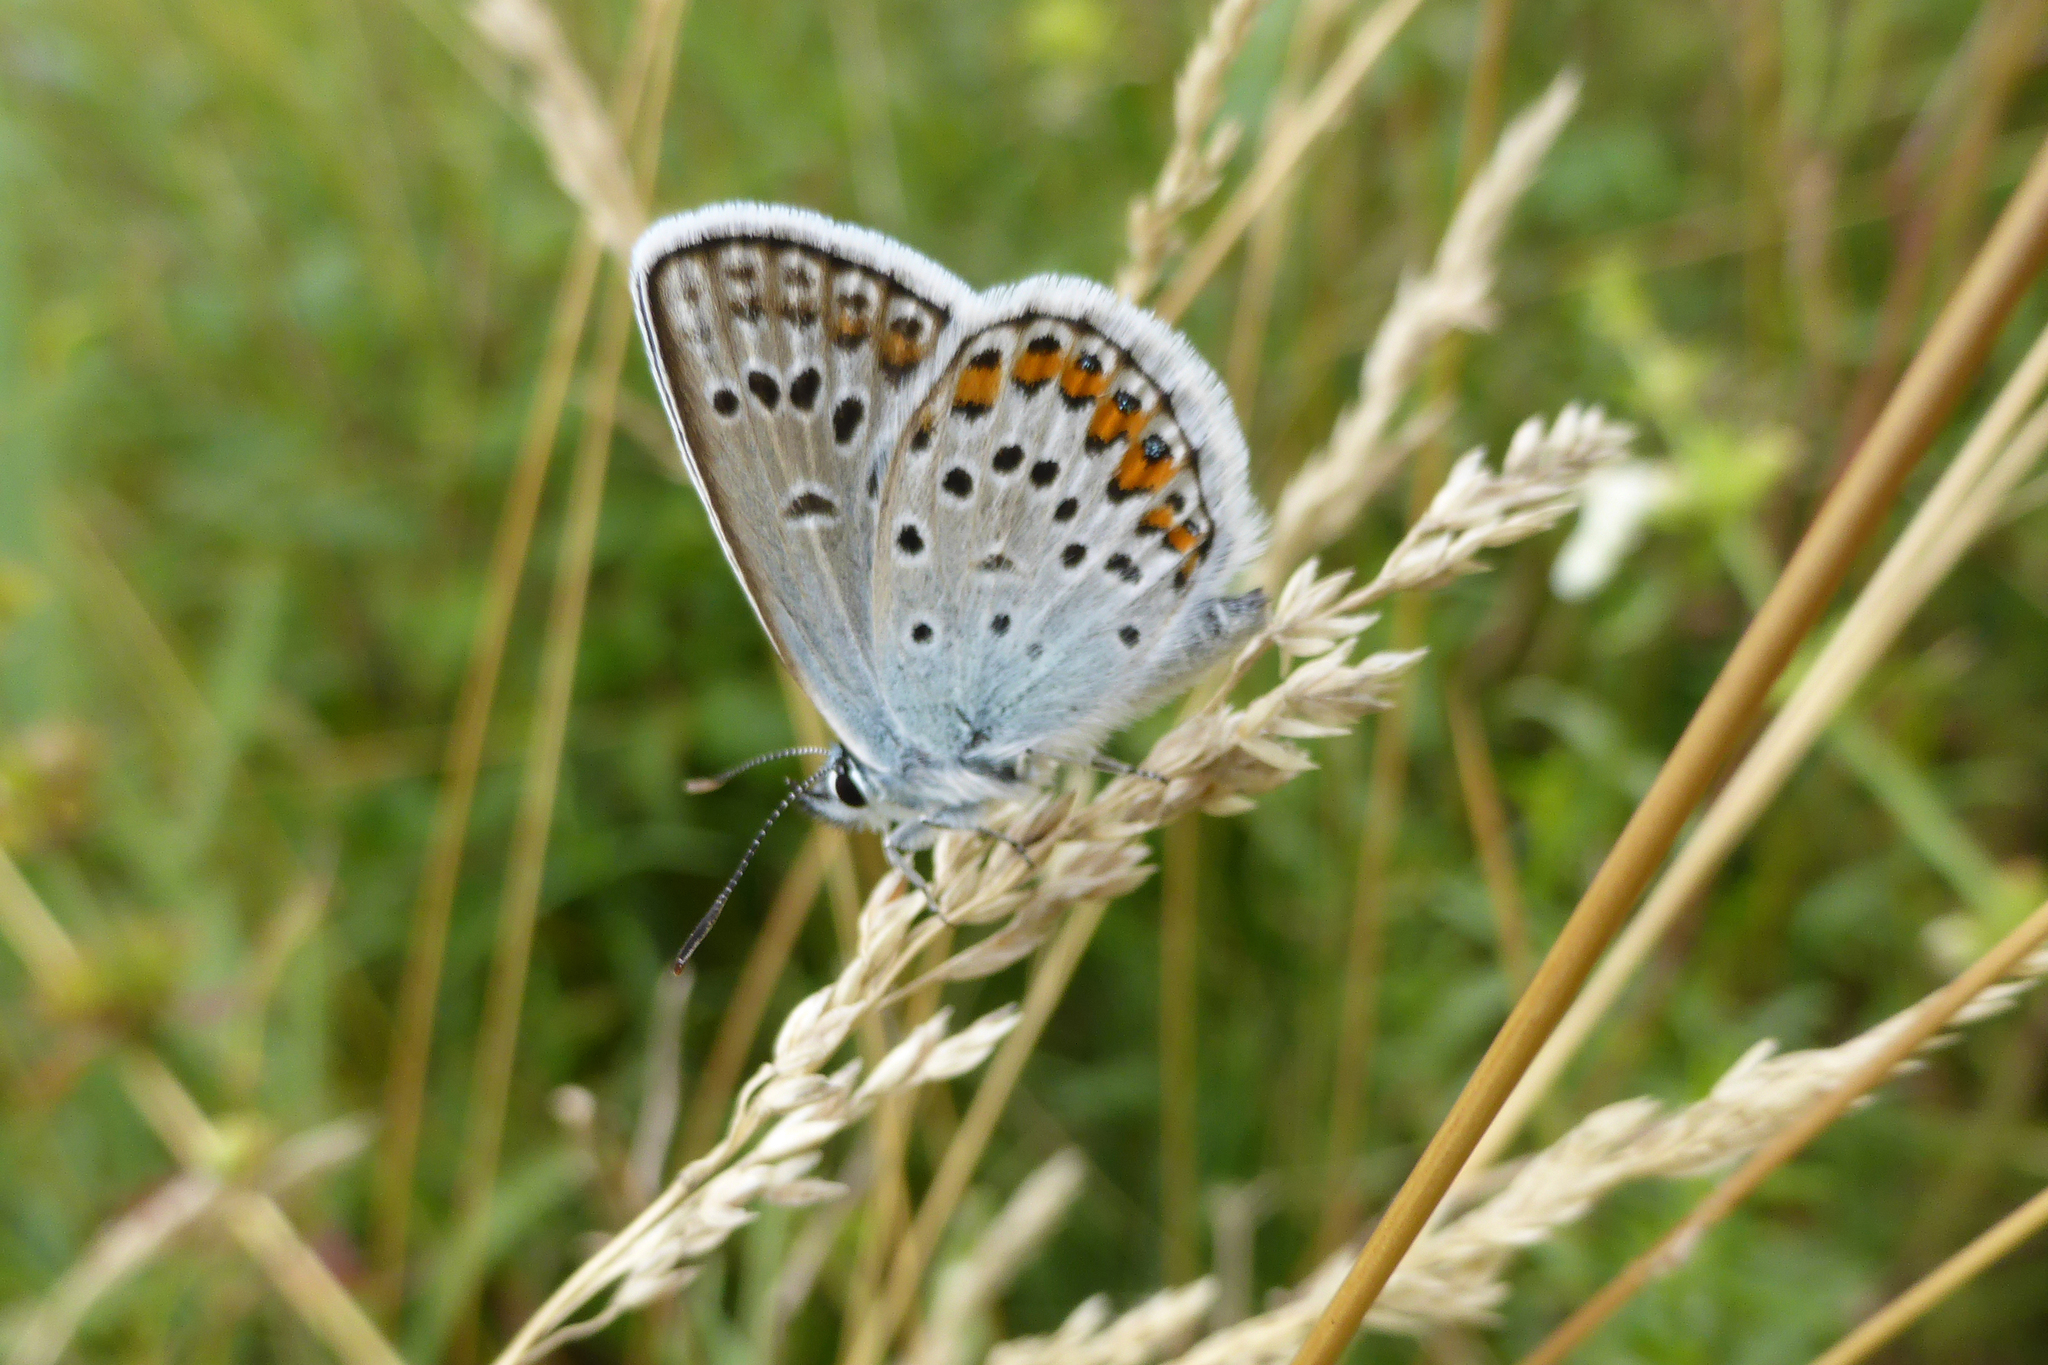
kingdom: Animalia
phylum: Arthropoda
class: Insecta
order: Lepidoptera
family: Lycaenidae
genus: Plebejus
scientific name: Plebejus argus
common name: Silver-studded blue
